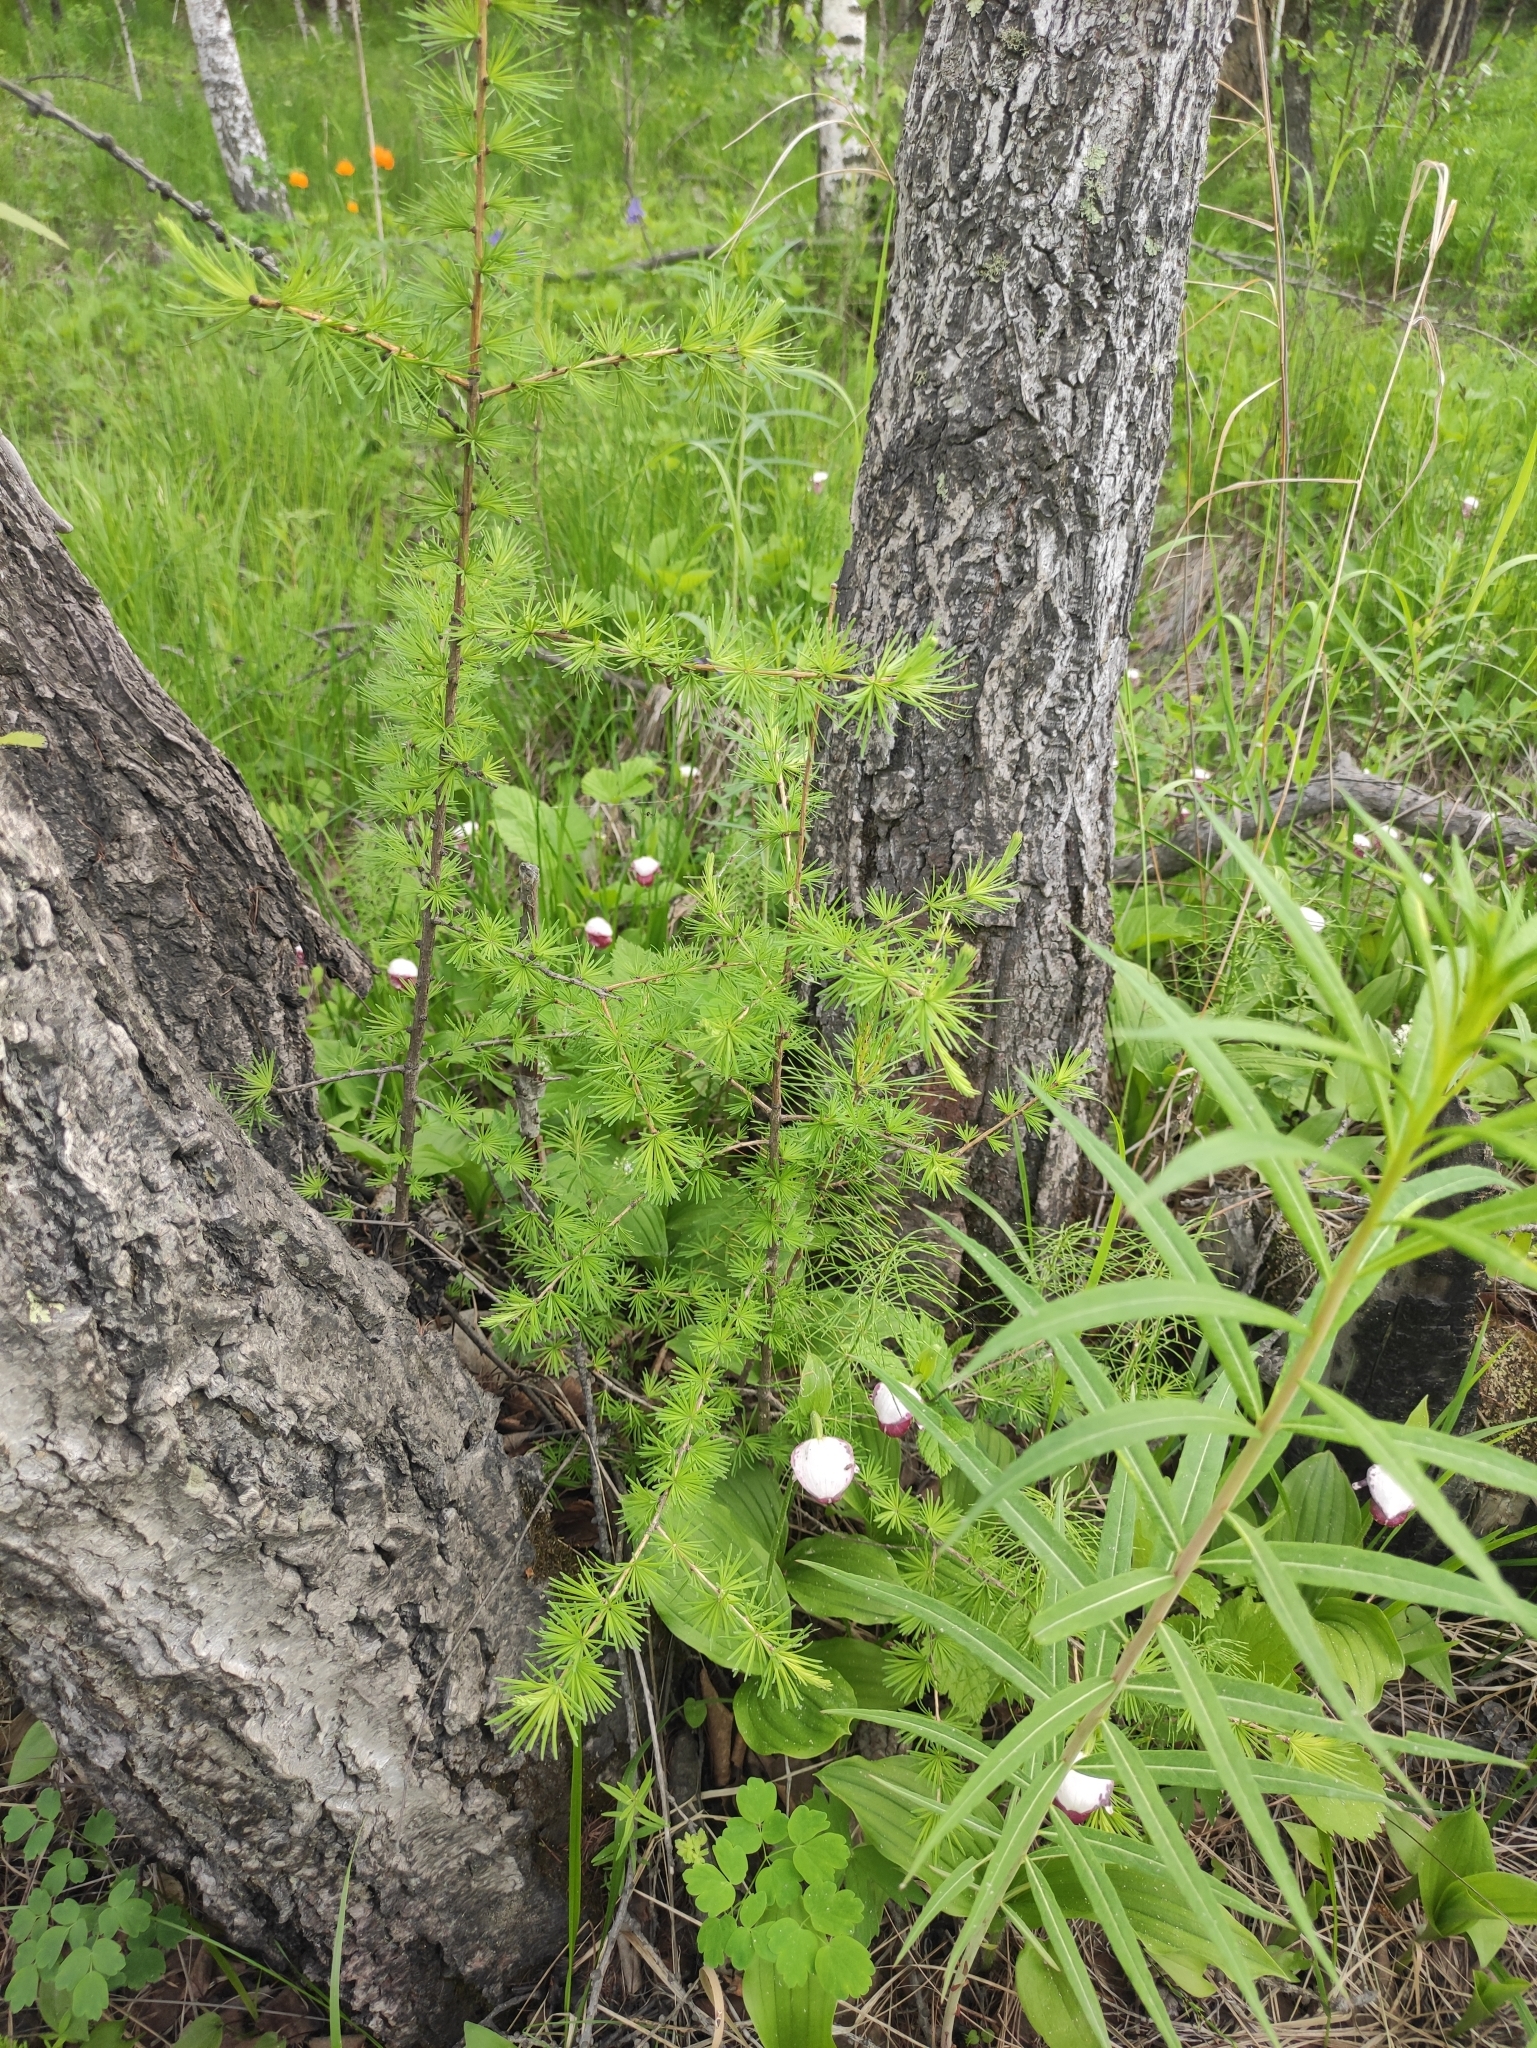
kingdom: Plantae
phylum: Tracheophyta
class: Pinopsida
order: Pinales
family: Pinaceae
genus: Larix
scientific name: Larix sibirica
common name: Siberian larch
